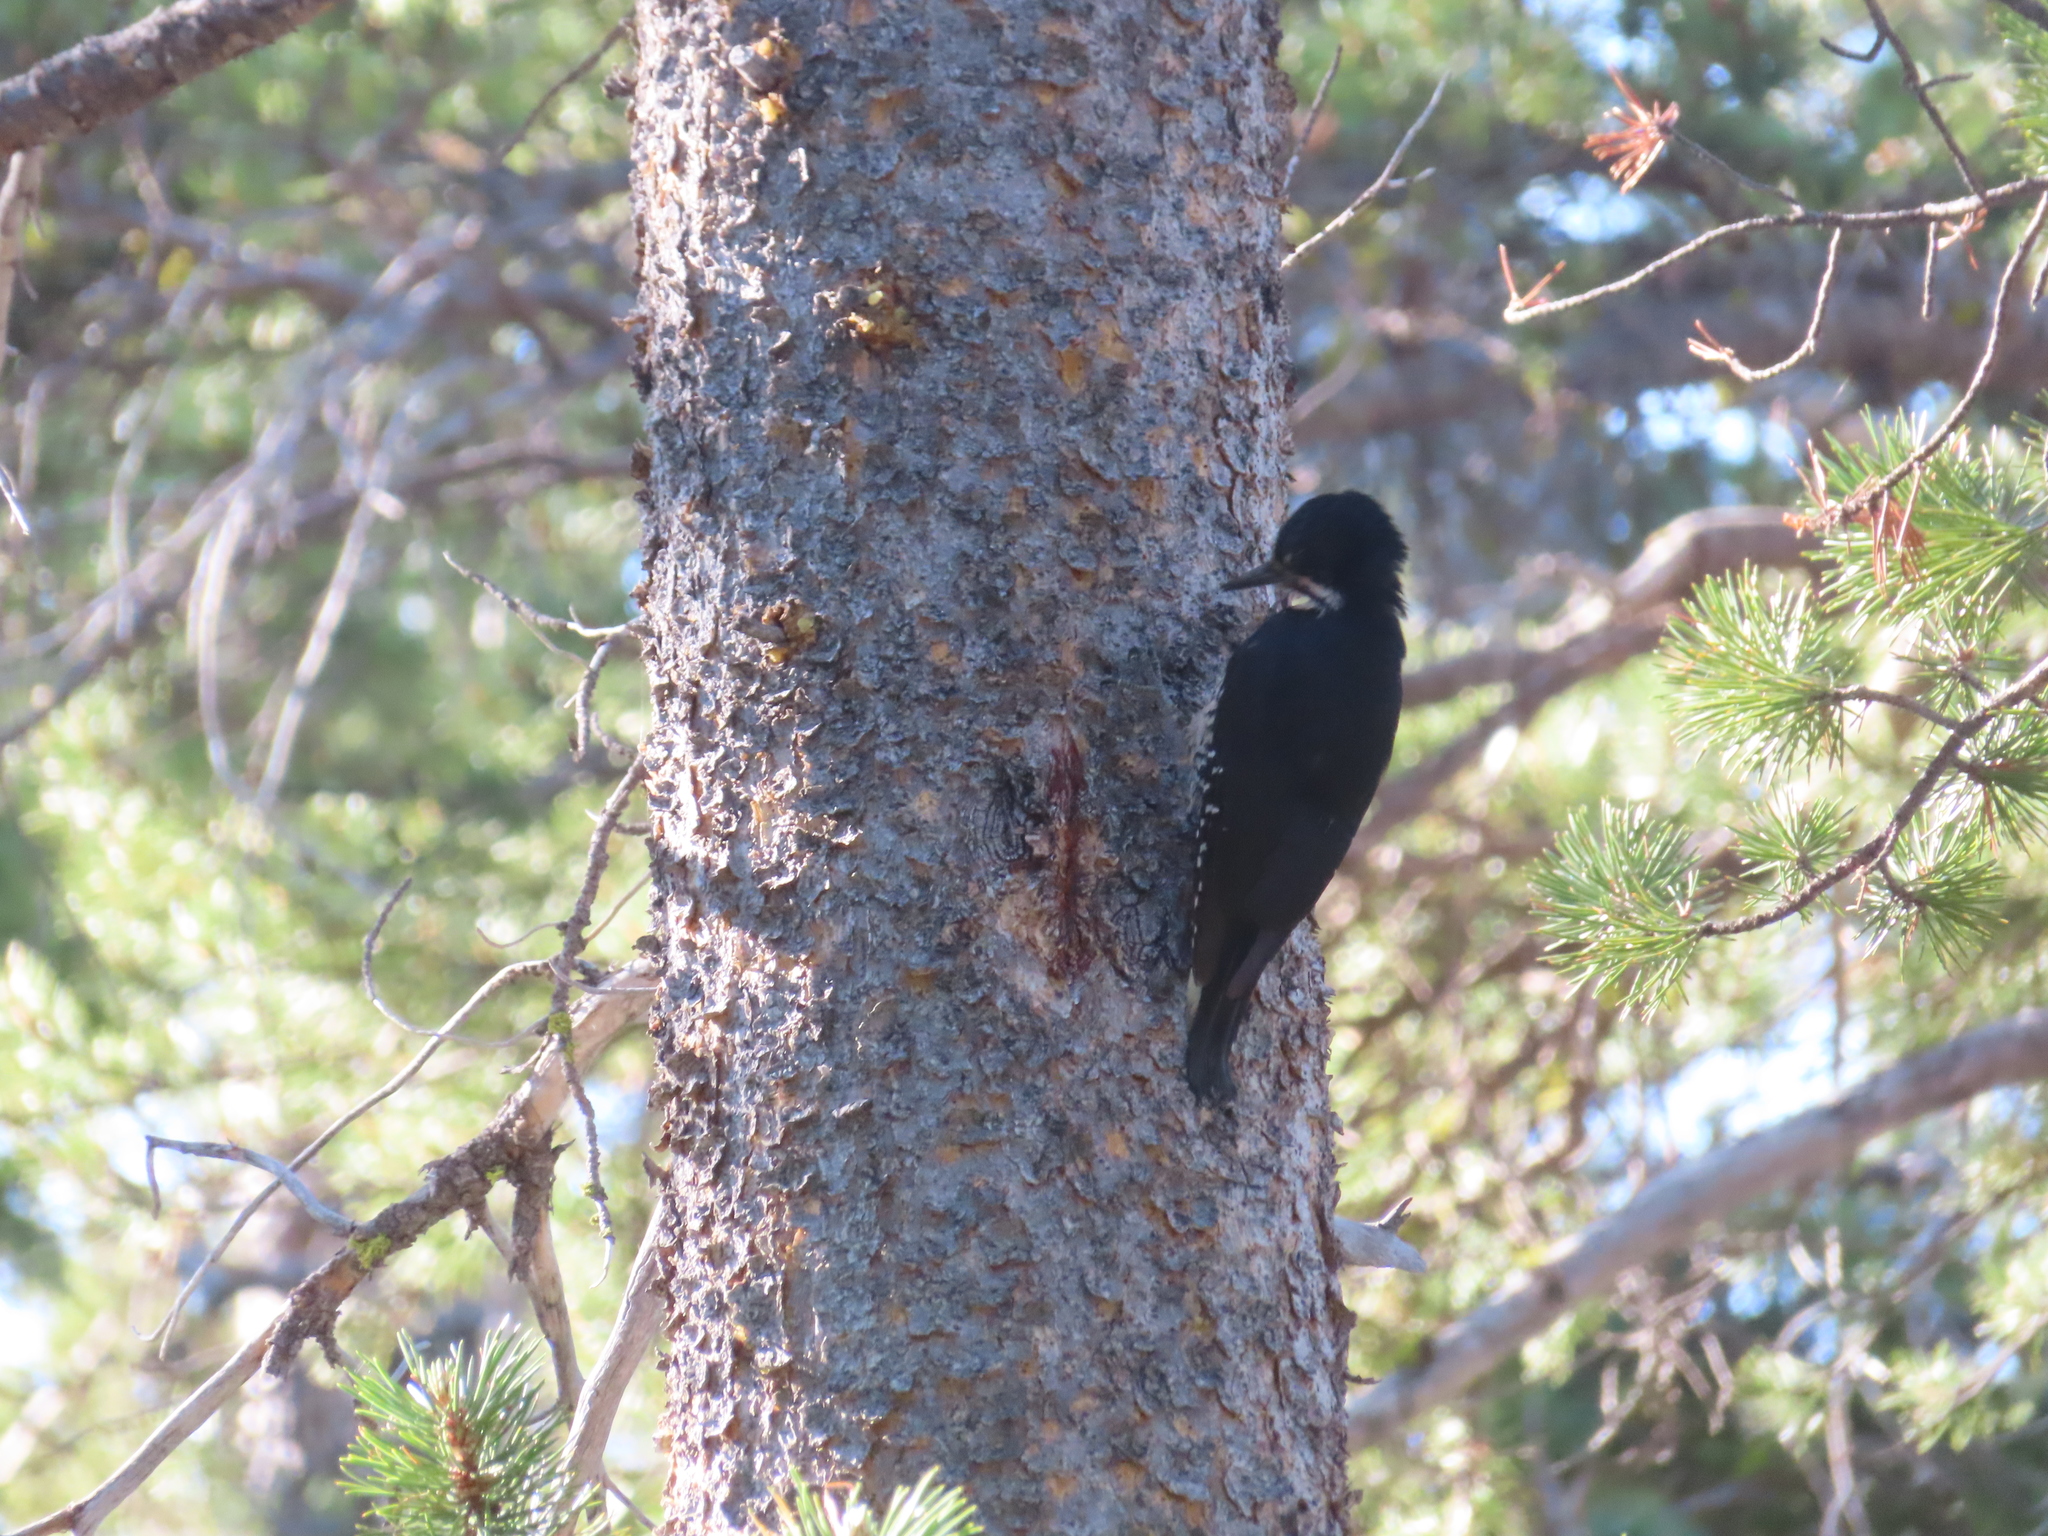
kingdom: Animalia
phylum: Chordata
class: Aves
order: Piciformes
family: Picidae
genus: Picoides
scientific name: Picoides arcticus
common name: Black-backed woodpecker
